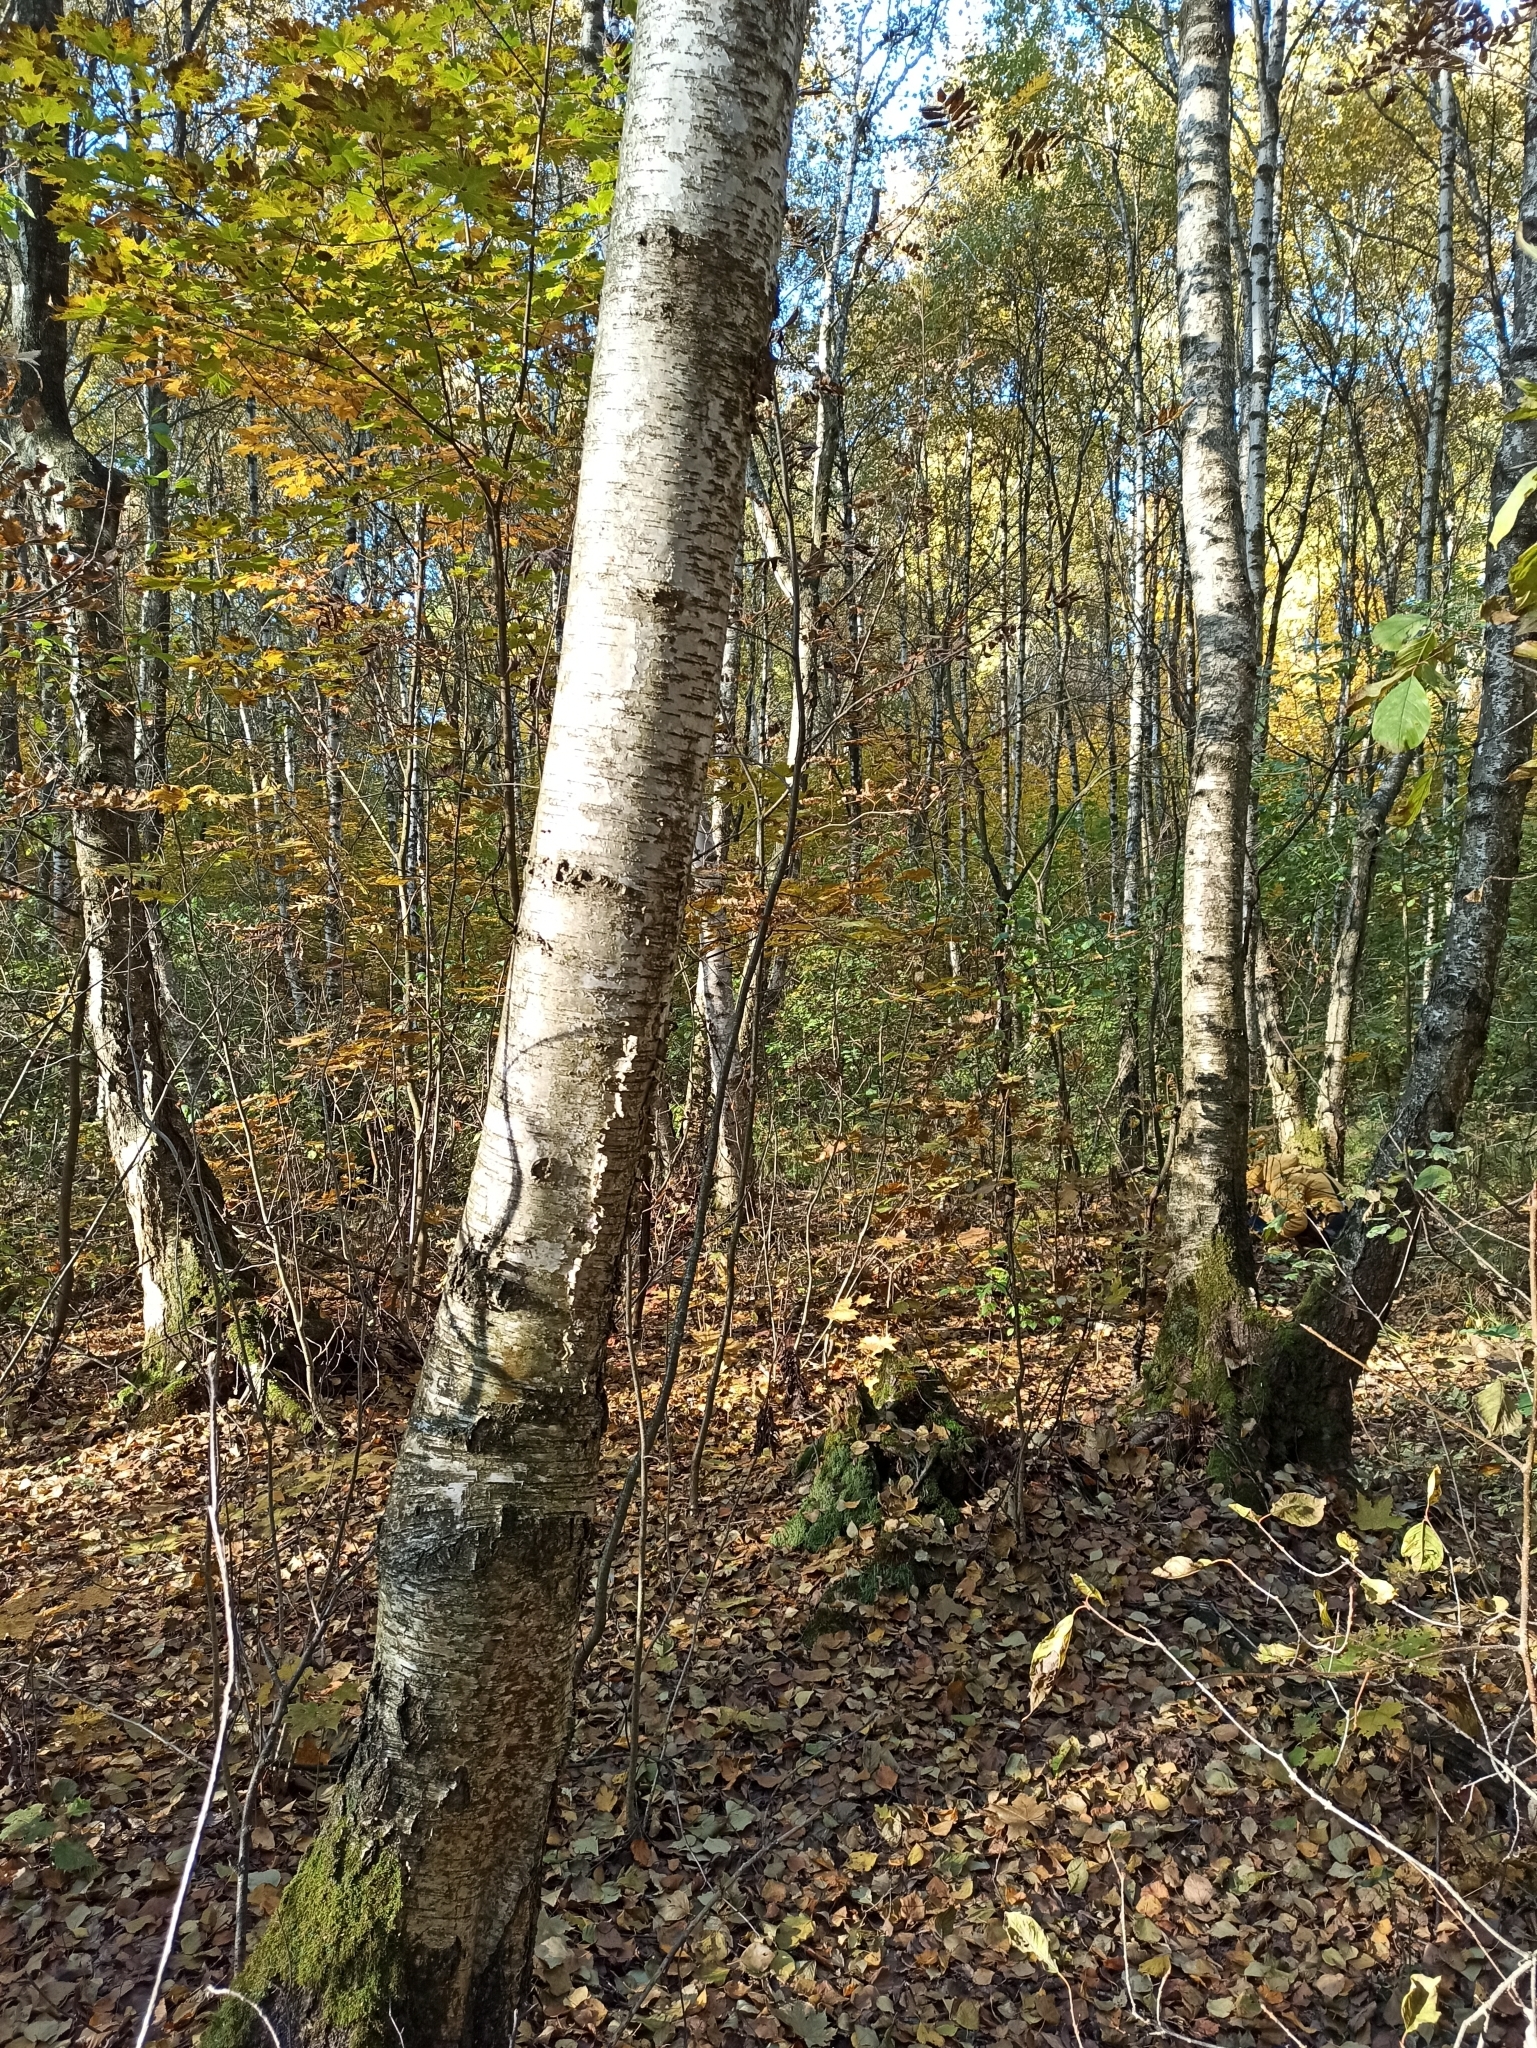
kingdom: Plantae
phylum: Tracheophyta
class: Magnoliopsida
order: Fagales
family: Betulaceae
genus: Betula
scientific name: Betula pubescens
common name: Downy birch
